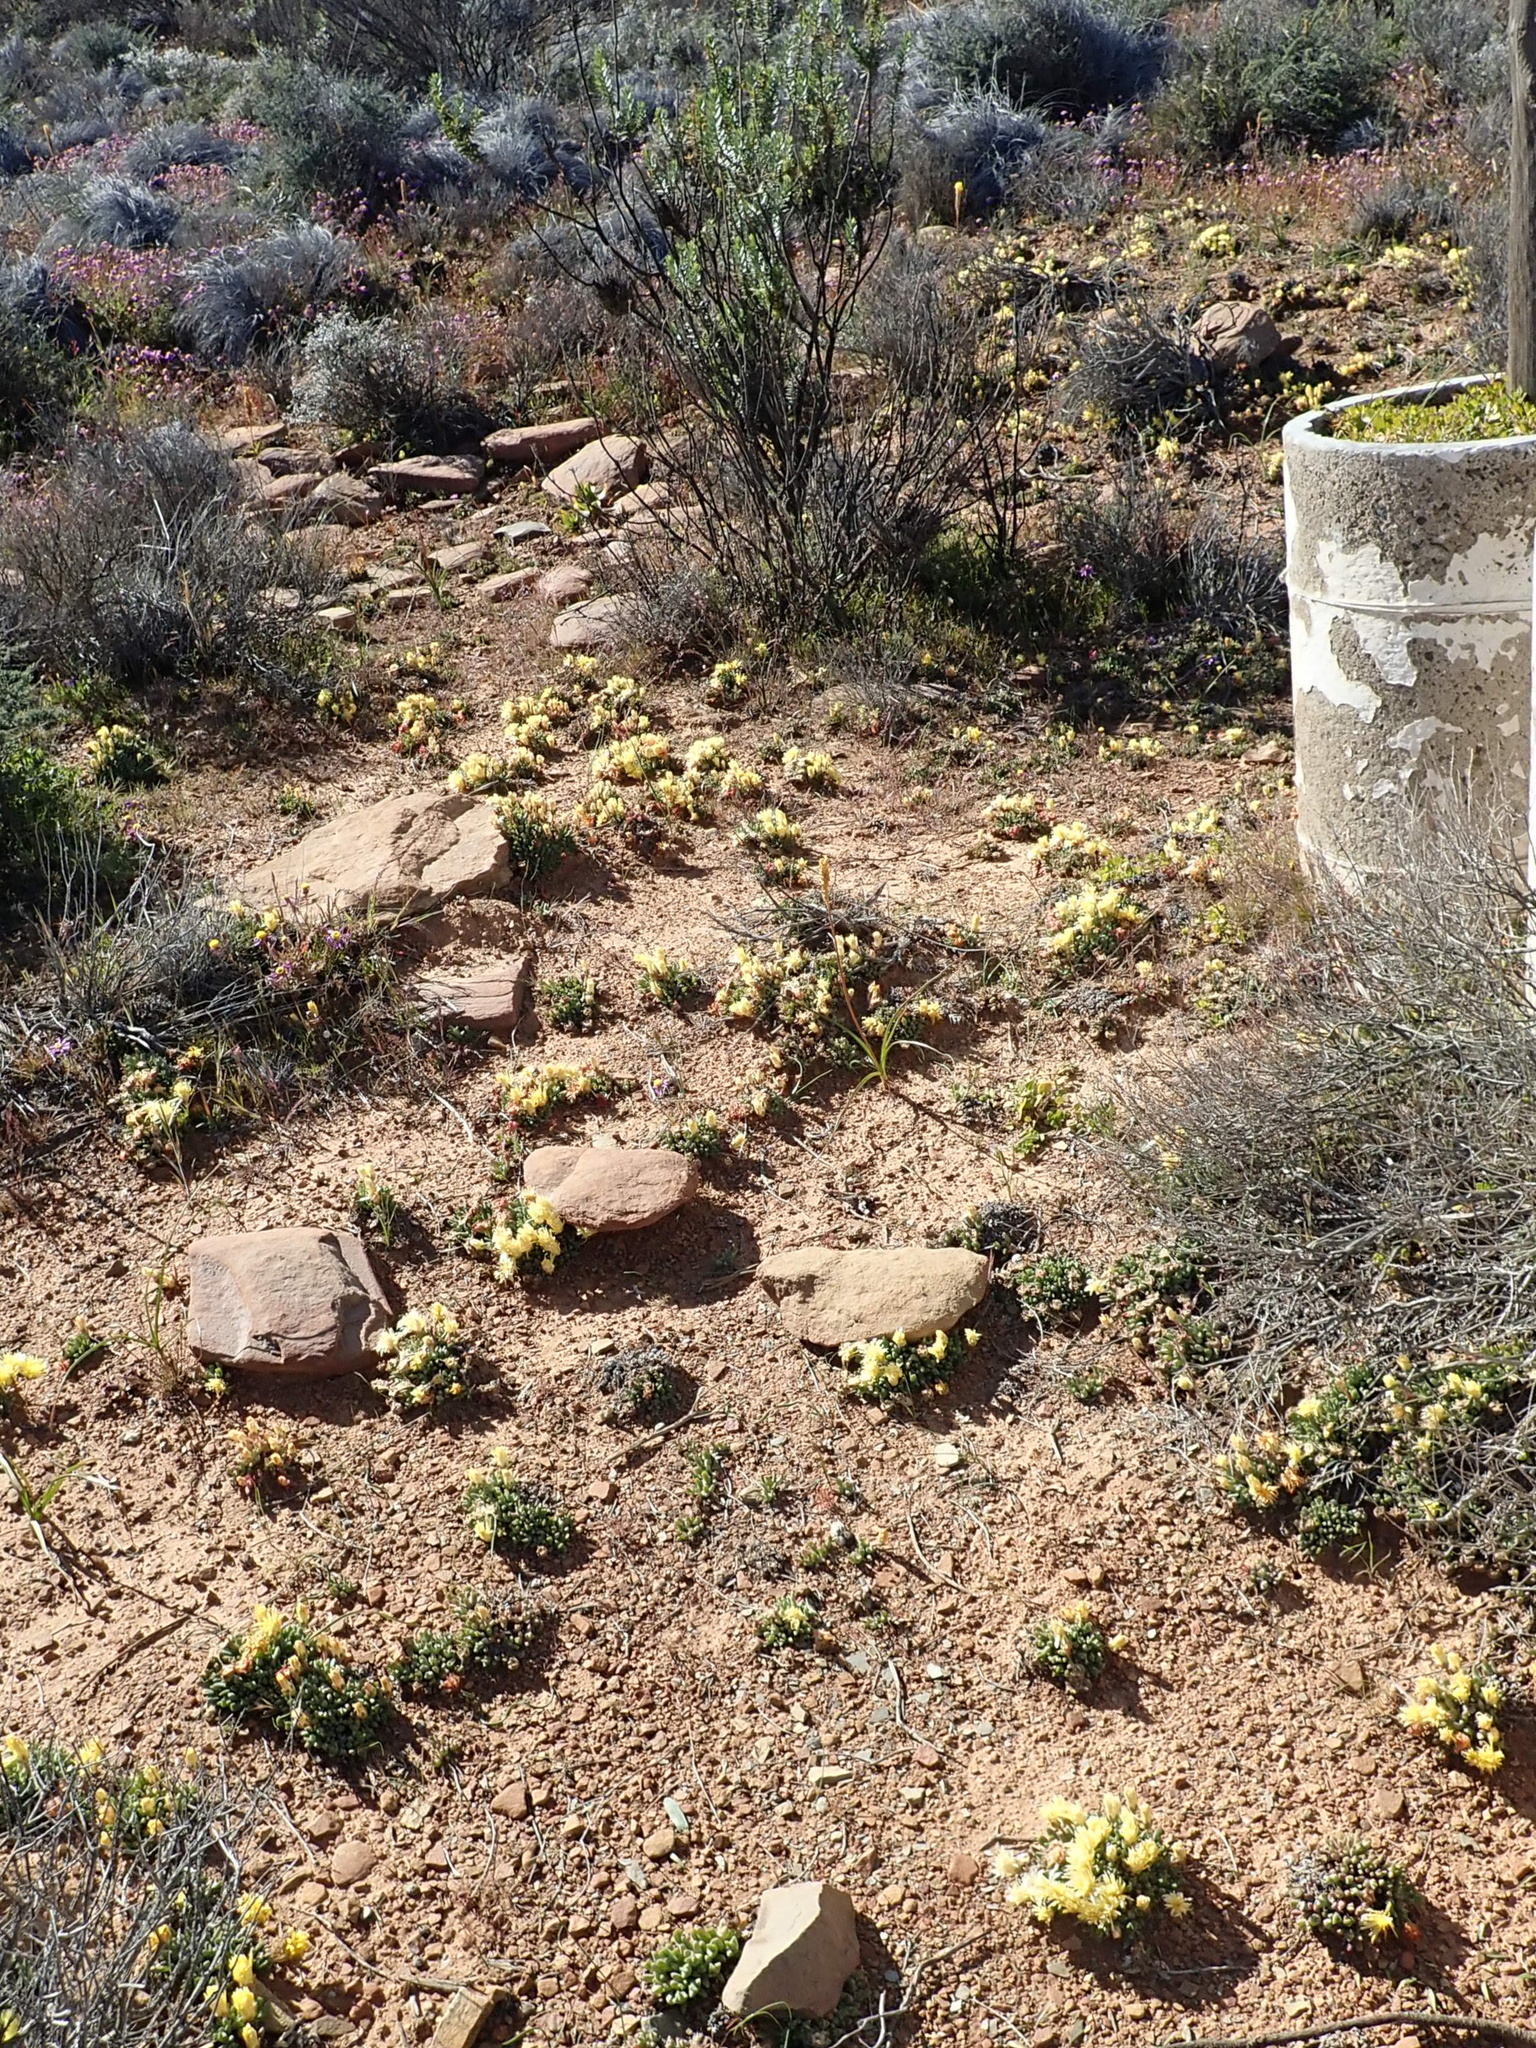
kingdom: Plantae
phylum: Tracheophyta
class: Magnoliopsida
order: Caryophyllales
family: Aizoaceae
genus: Cheiridopsis
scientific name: Cheiridopsis namaquensis
